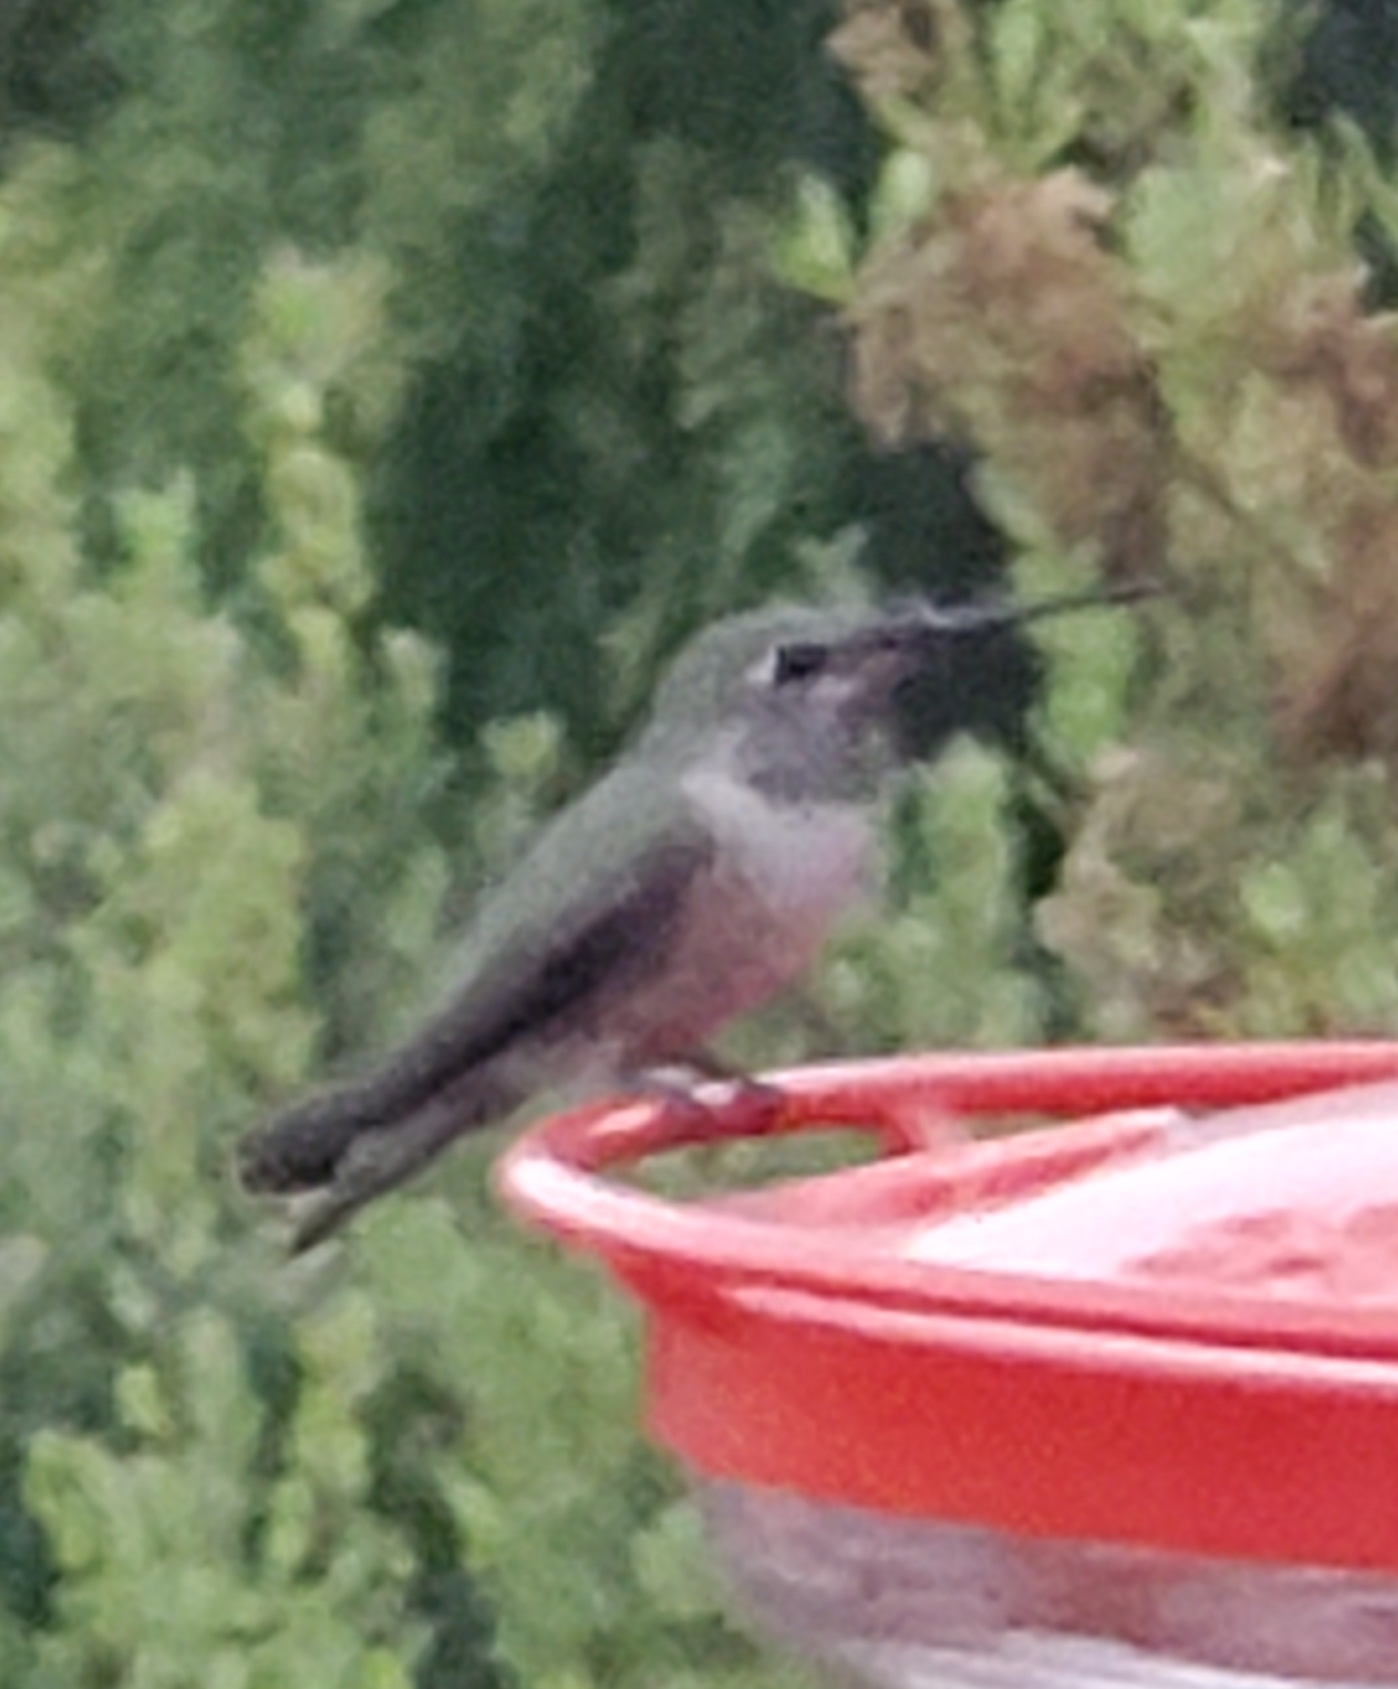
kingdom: Animalia
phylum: Chordata
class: Aves
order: Apodiformes
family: Trochilidae
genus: Calypte
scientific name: Calypte anna
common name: Anna's hummingbird
